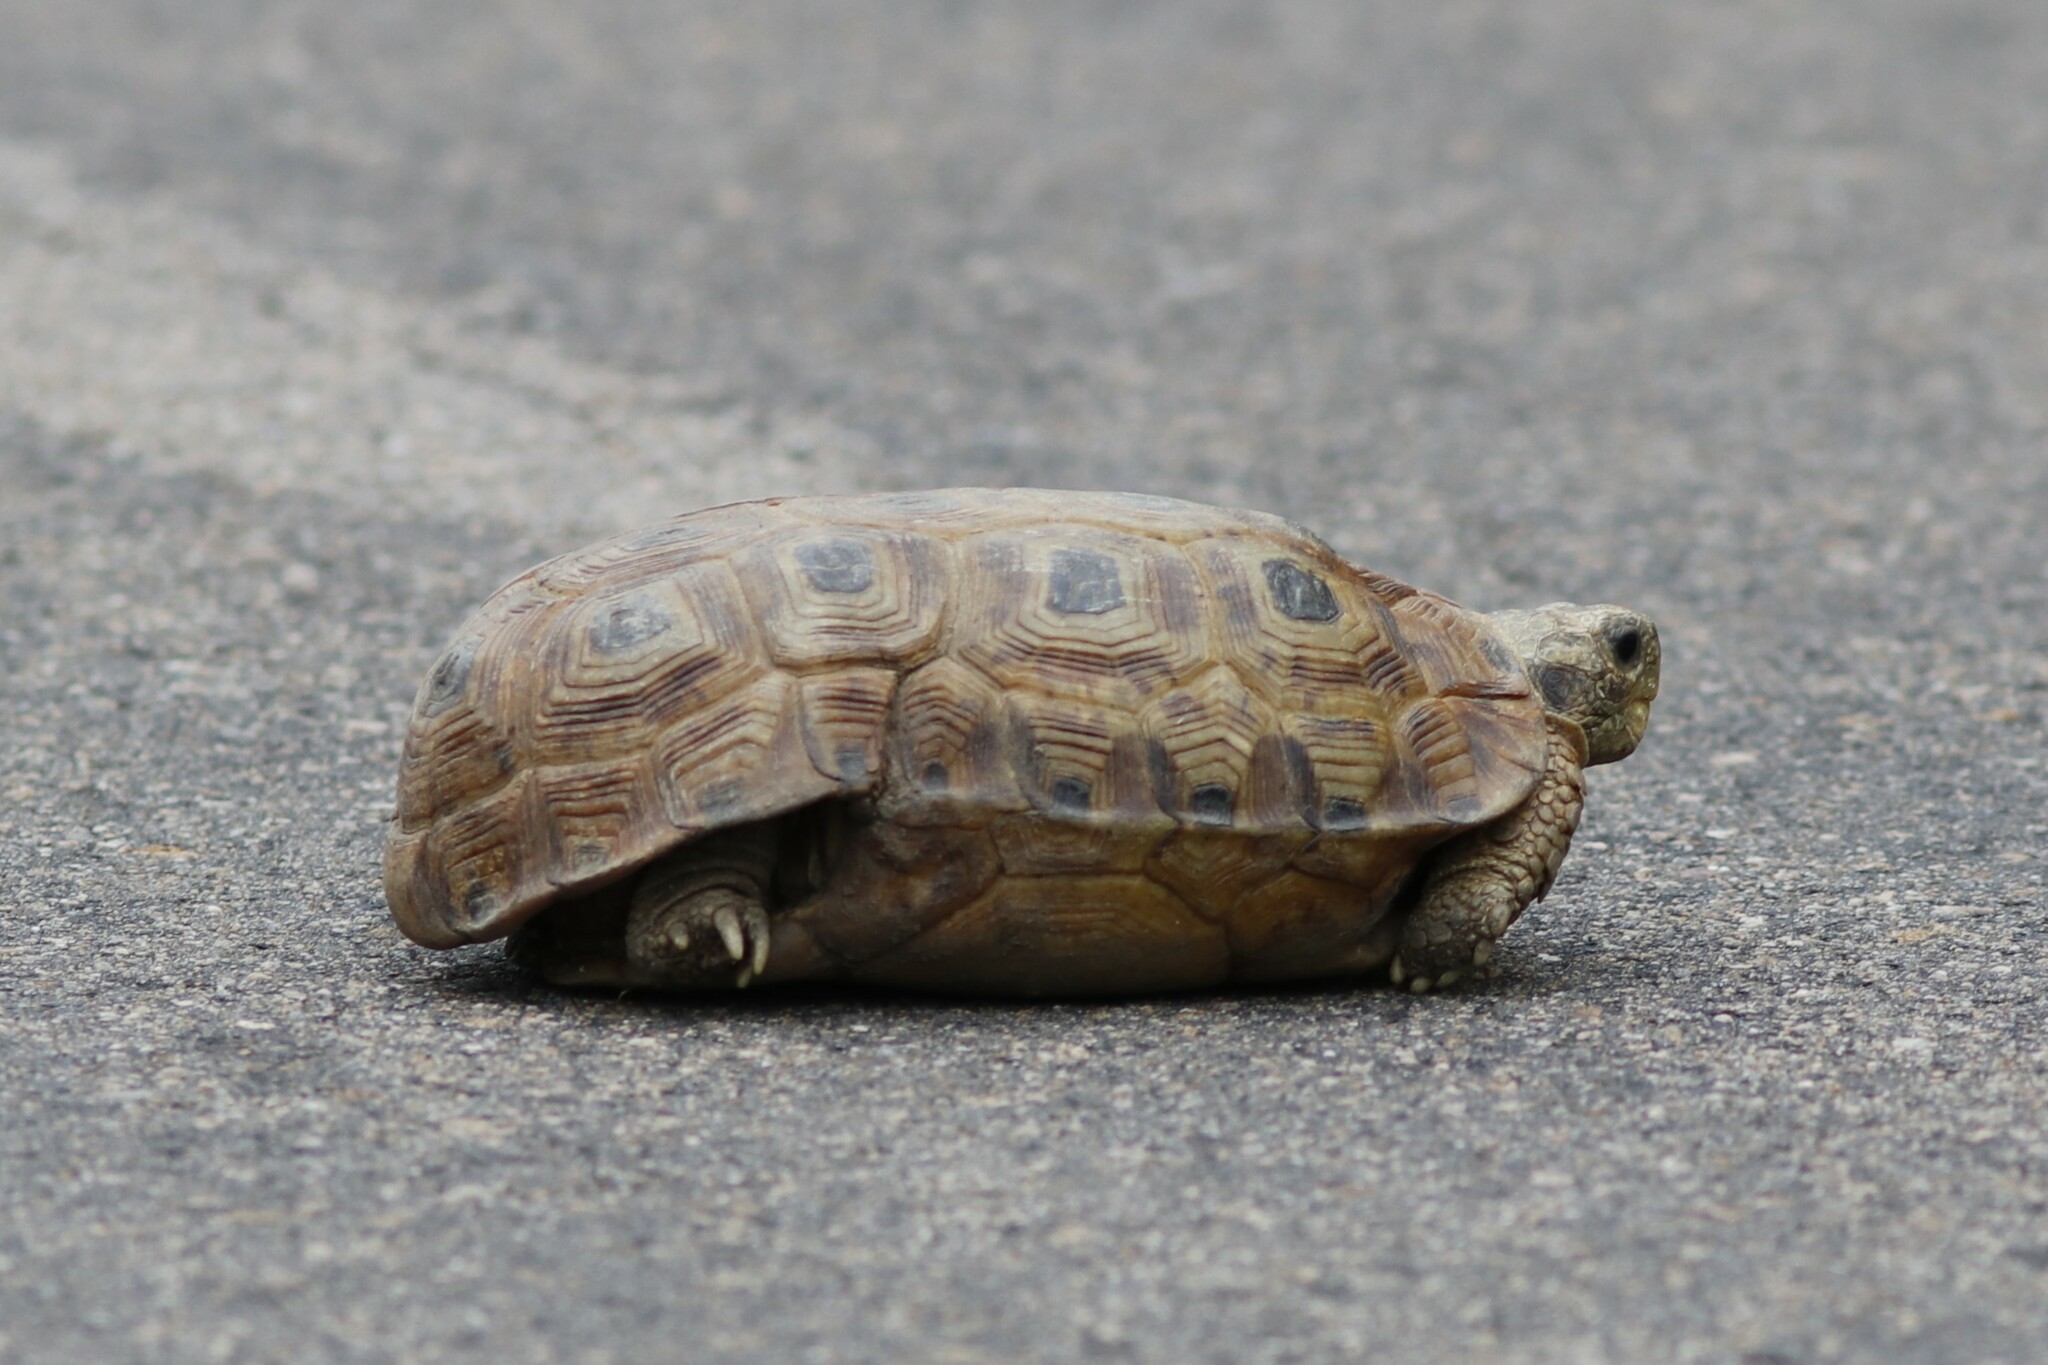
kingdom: Animalia
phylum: Chordata
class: Testudines
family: Testudinidae
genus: Kinixys
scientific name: Kinixys spekii
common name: Speke's hingeback tortoise
